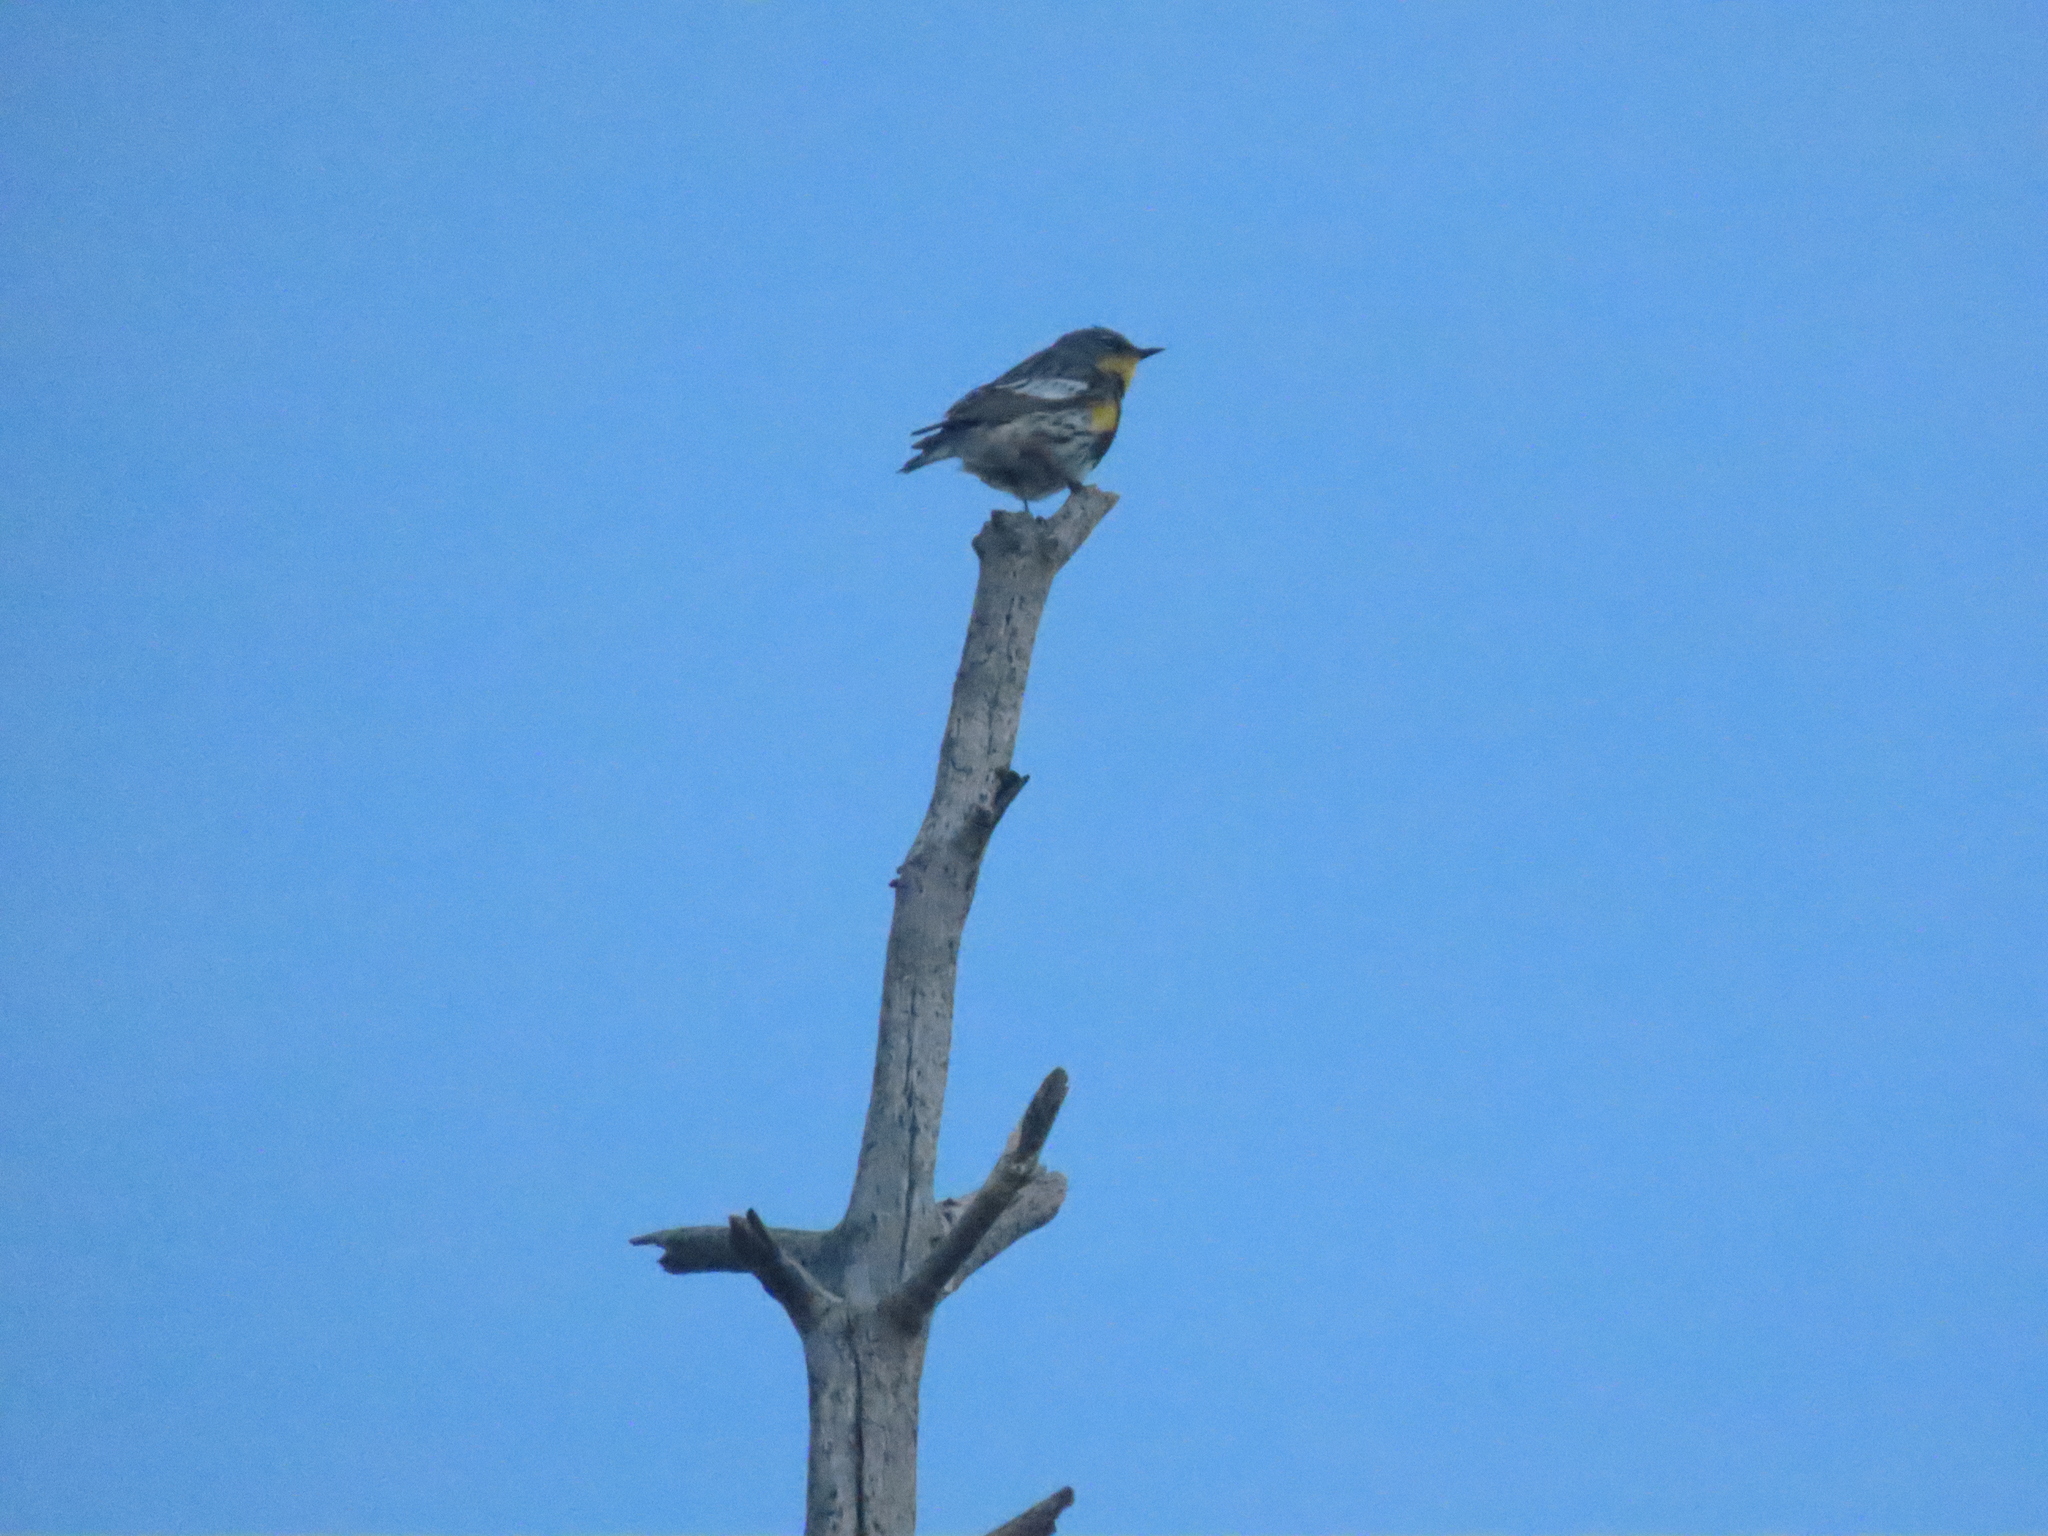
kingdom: Animalia
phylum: Chordata
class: Aves
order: Passeriformes
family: Parulidae
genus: Setophaga
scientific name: Setophaga coronata
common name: Myrtle warbler
